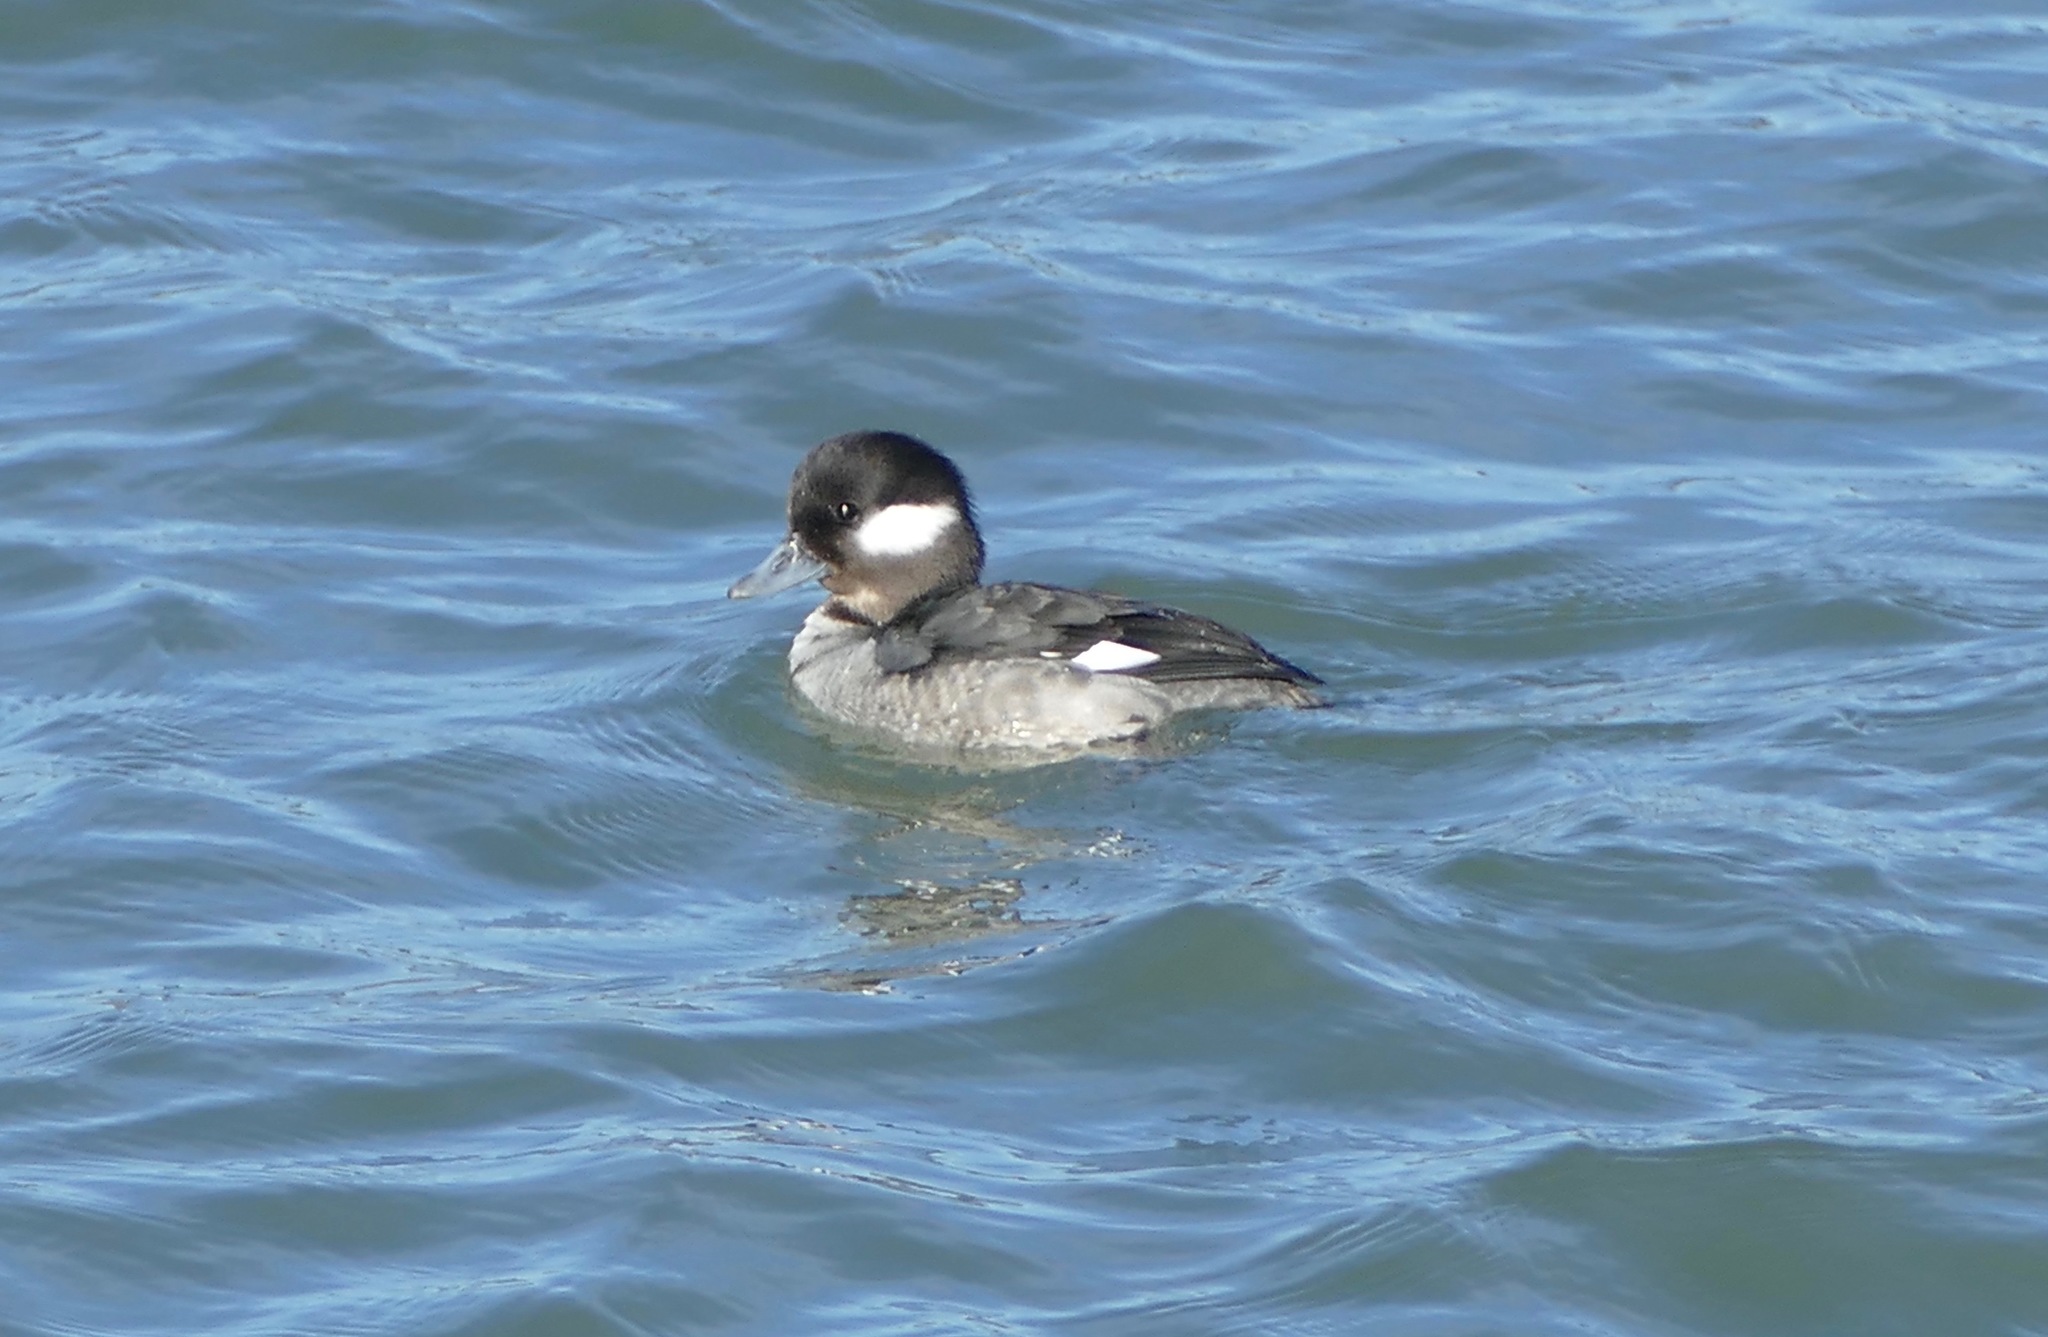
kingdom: Animalia
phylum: Chordata
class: Aves
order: Anseriformes
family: Anatidae
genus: Bucephala
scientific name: Bucephala albeola
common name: Bufflehead
